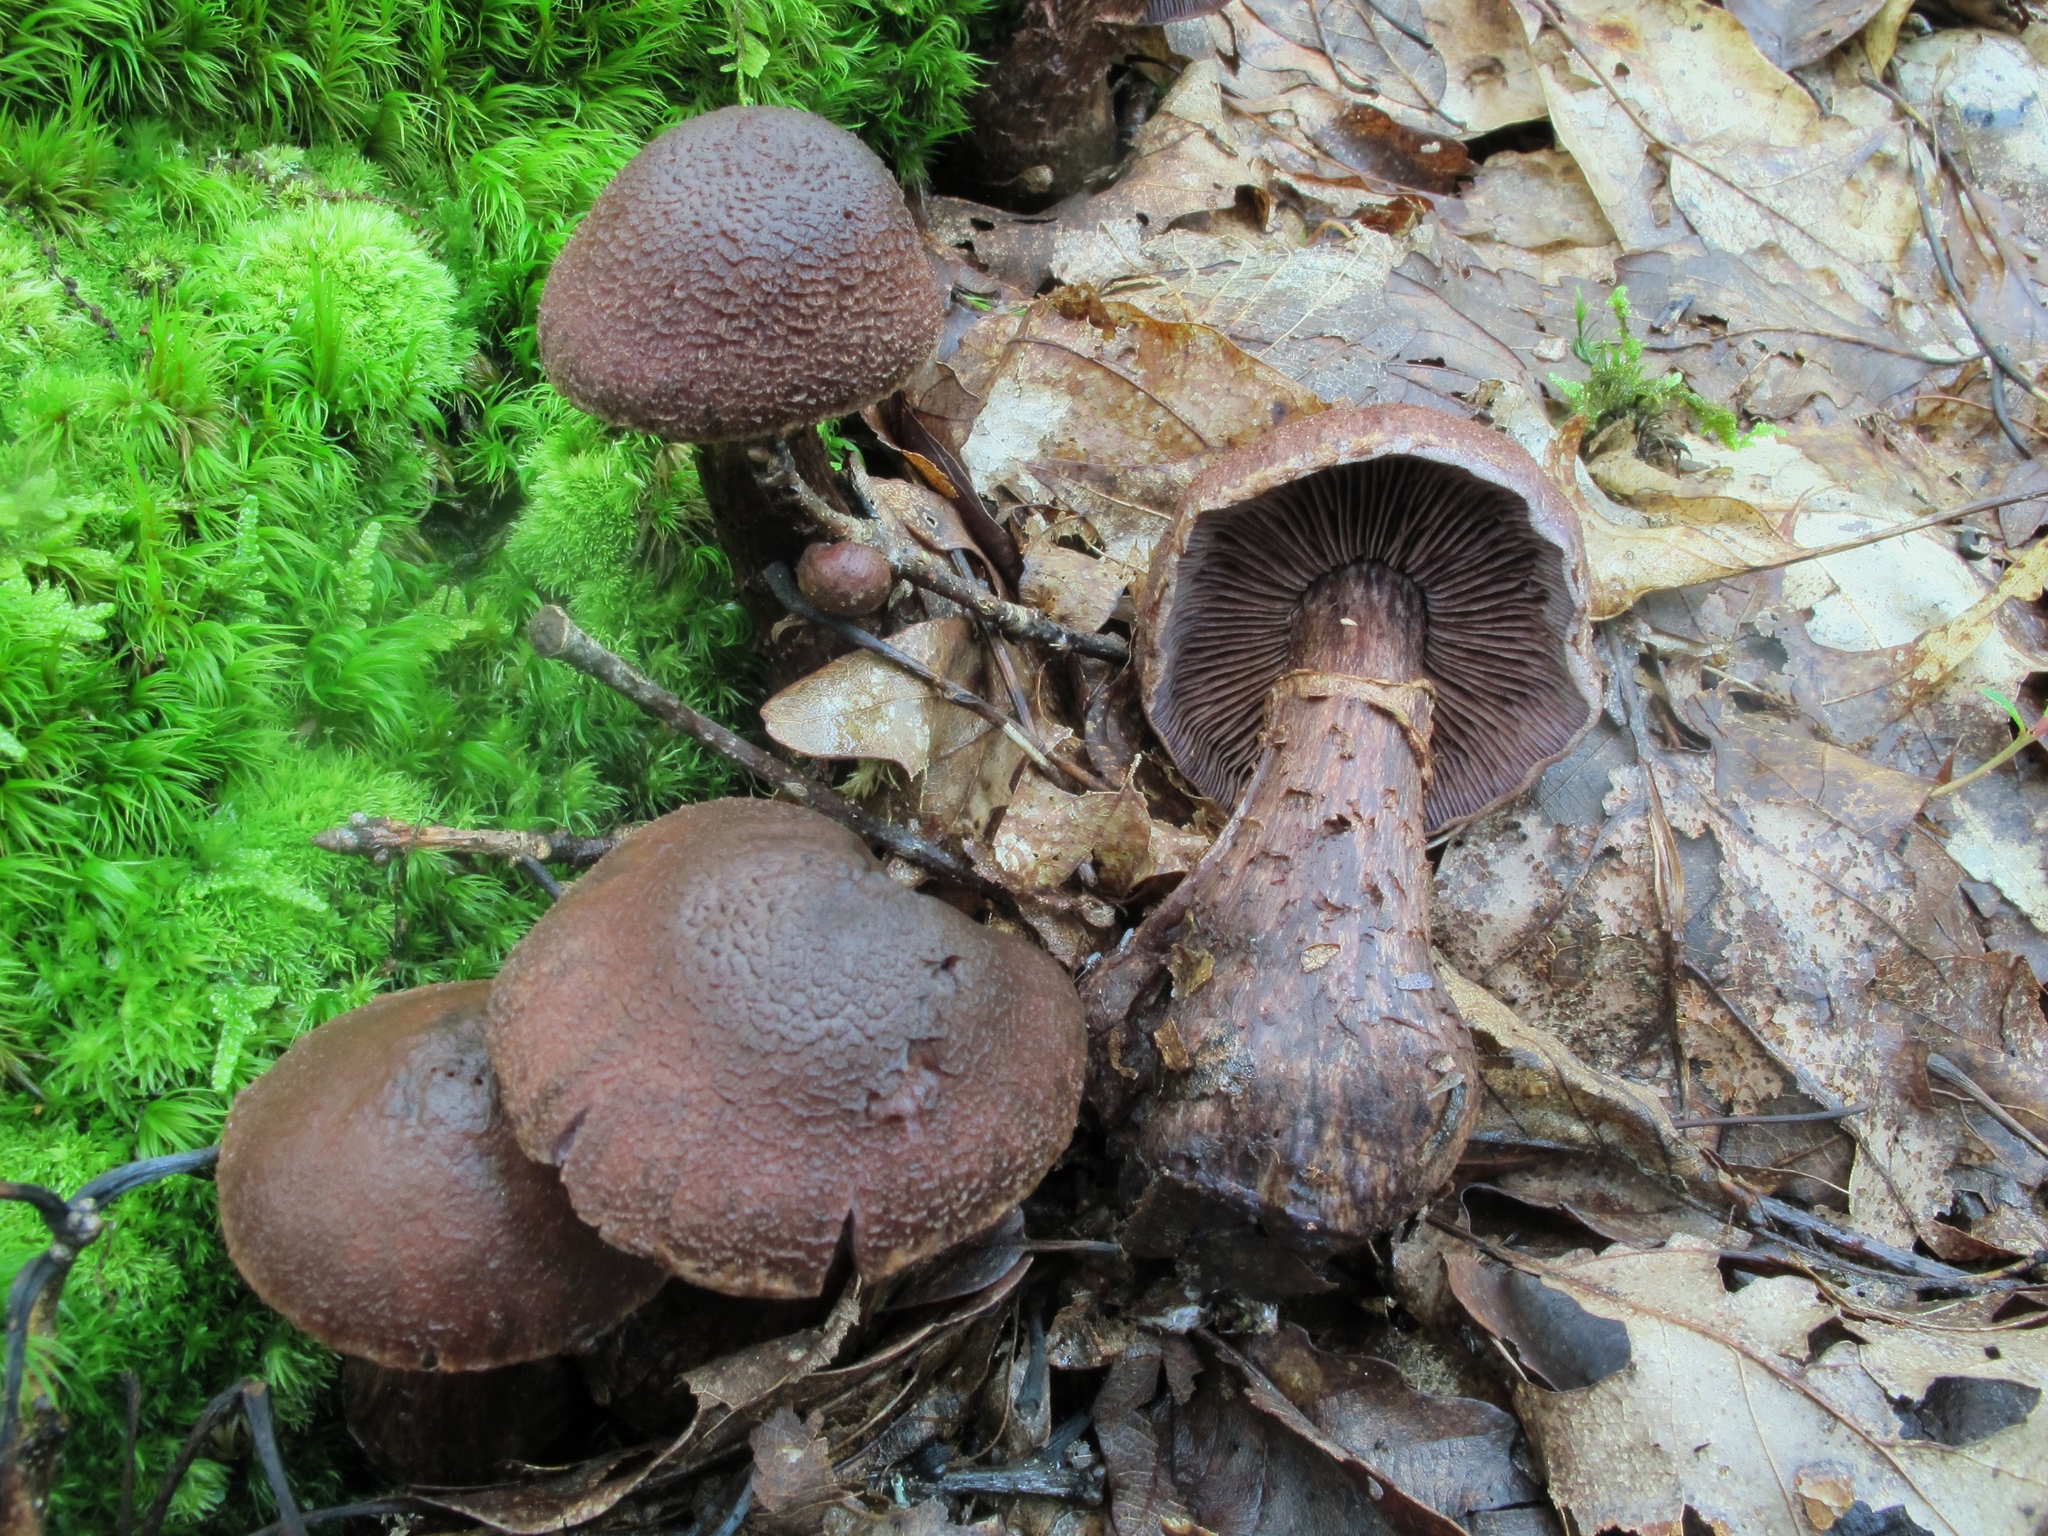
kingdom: Fungi
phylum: Basidiomycota
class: Agaricomycetes
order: Agaricales
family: Cortinariaceae
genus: Cortinarius
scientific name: Cortinarius squamulosus
